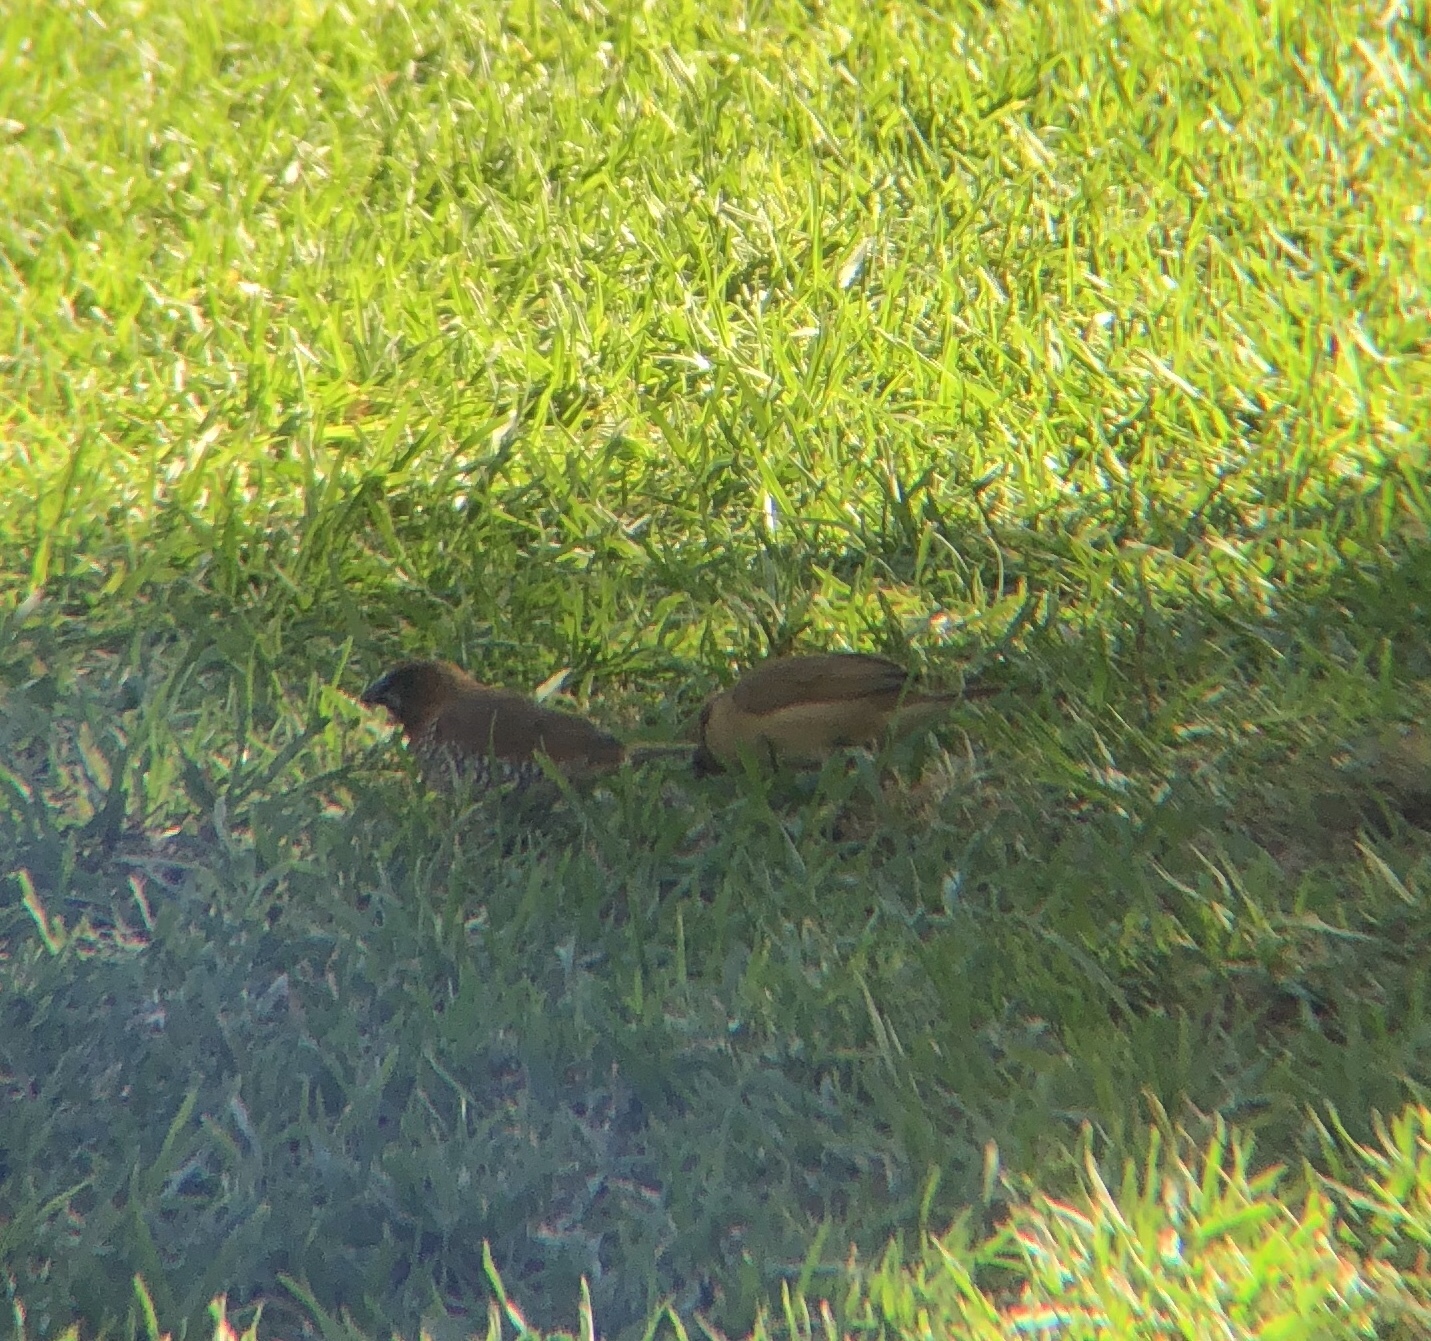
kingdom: Animalia
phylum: Chordata
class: Aves
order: Passeriformes
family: Estrildidae
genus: Lonchura
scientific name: Lonchura punctulata
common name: Scaly-breasted munia
